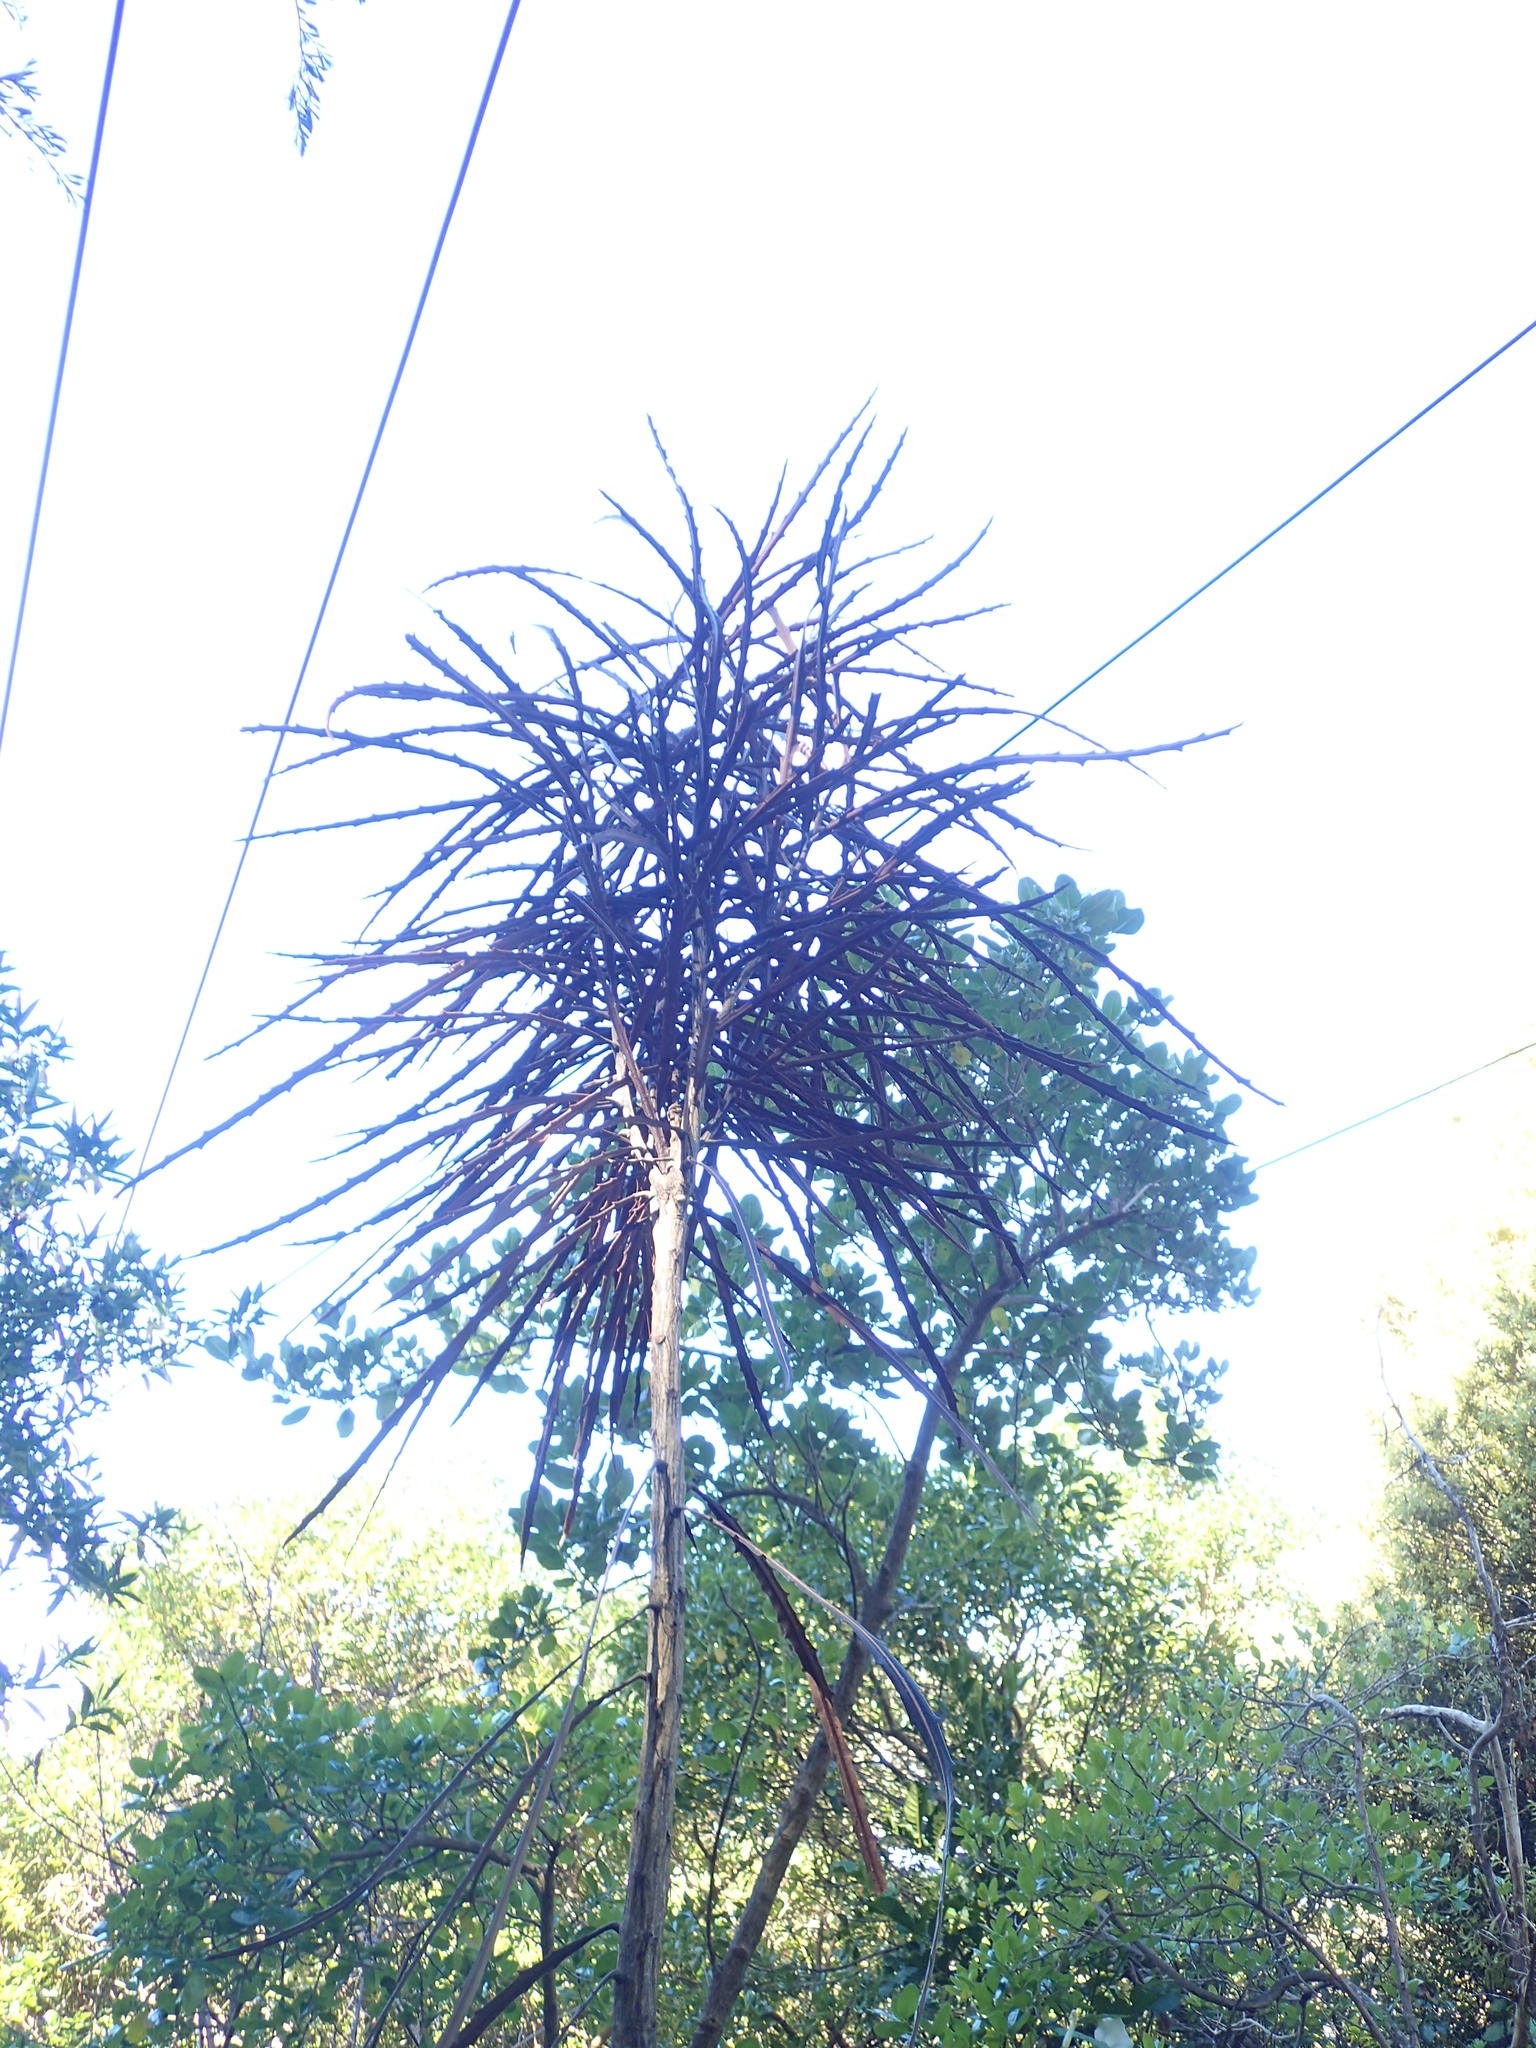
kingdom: Plantae
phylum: Tracheophyta
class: Magnoliopsida
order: Apiales
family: Araliaceae
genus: Pseudopanax
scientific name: Pseudopanax crassifolius
